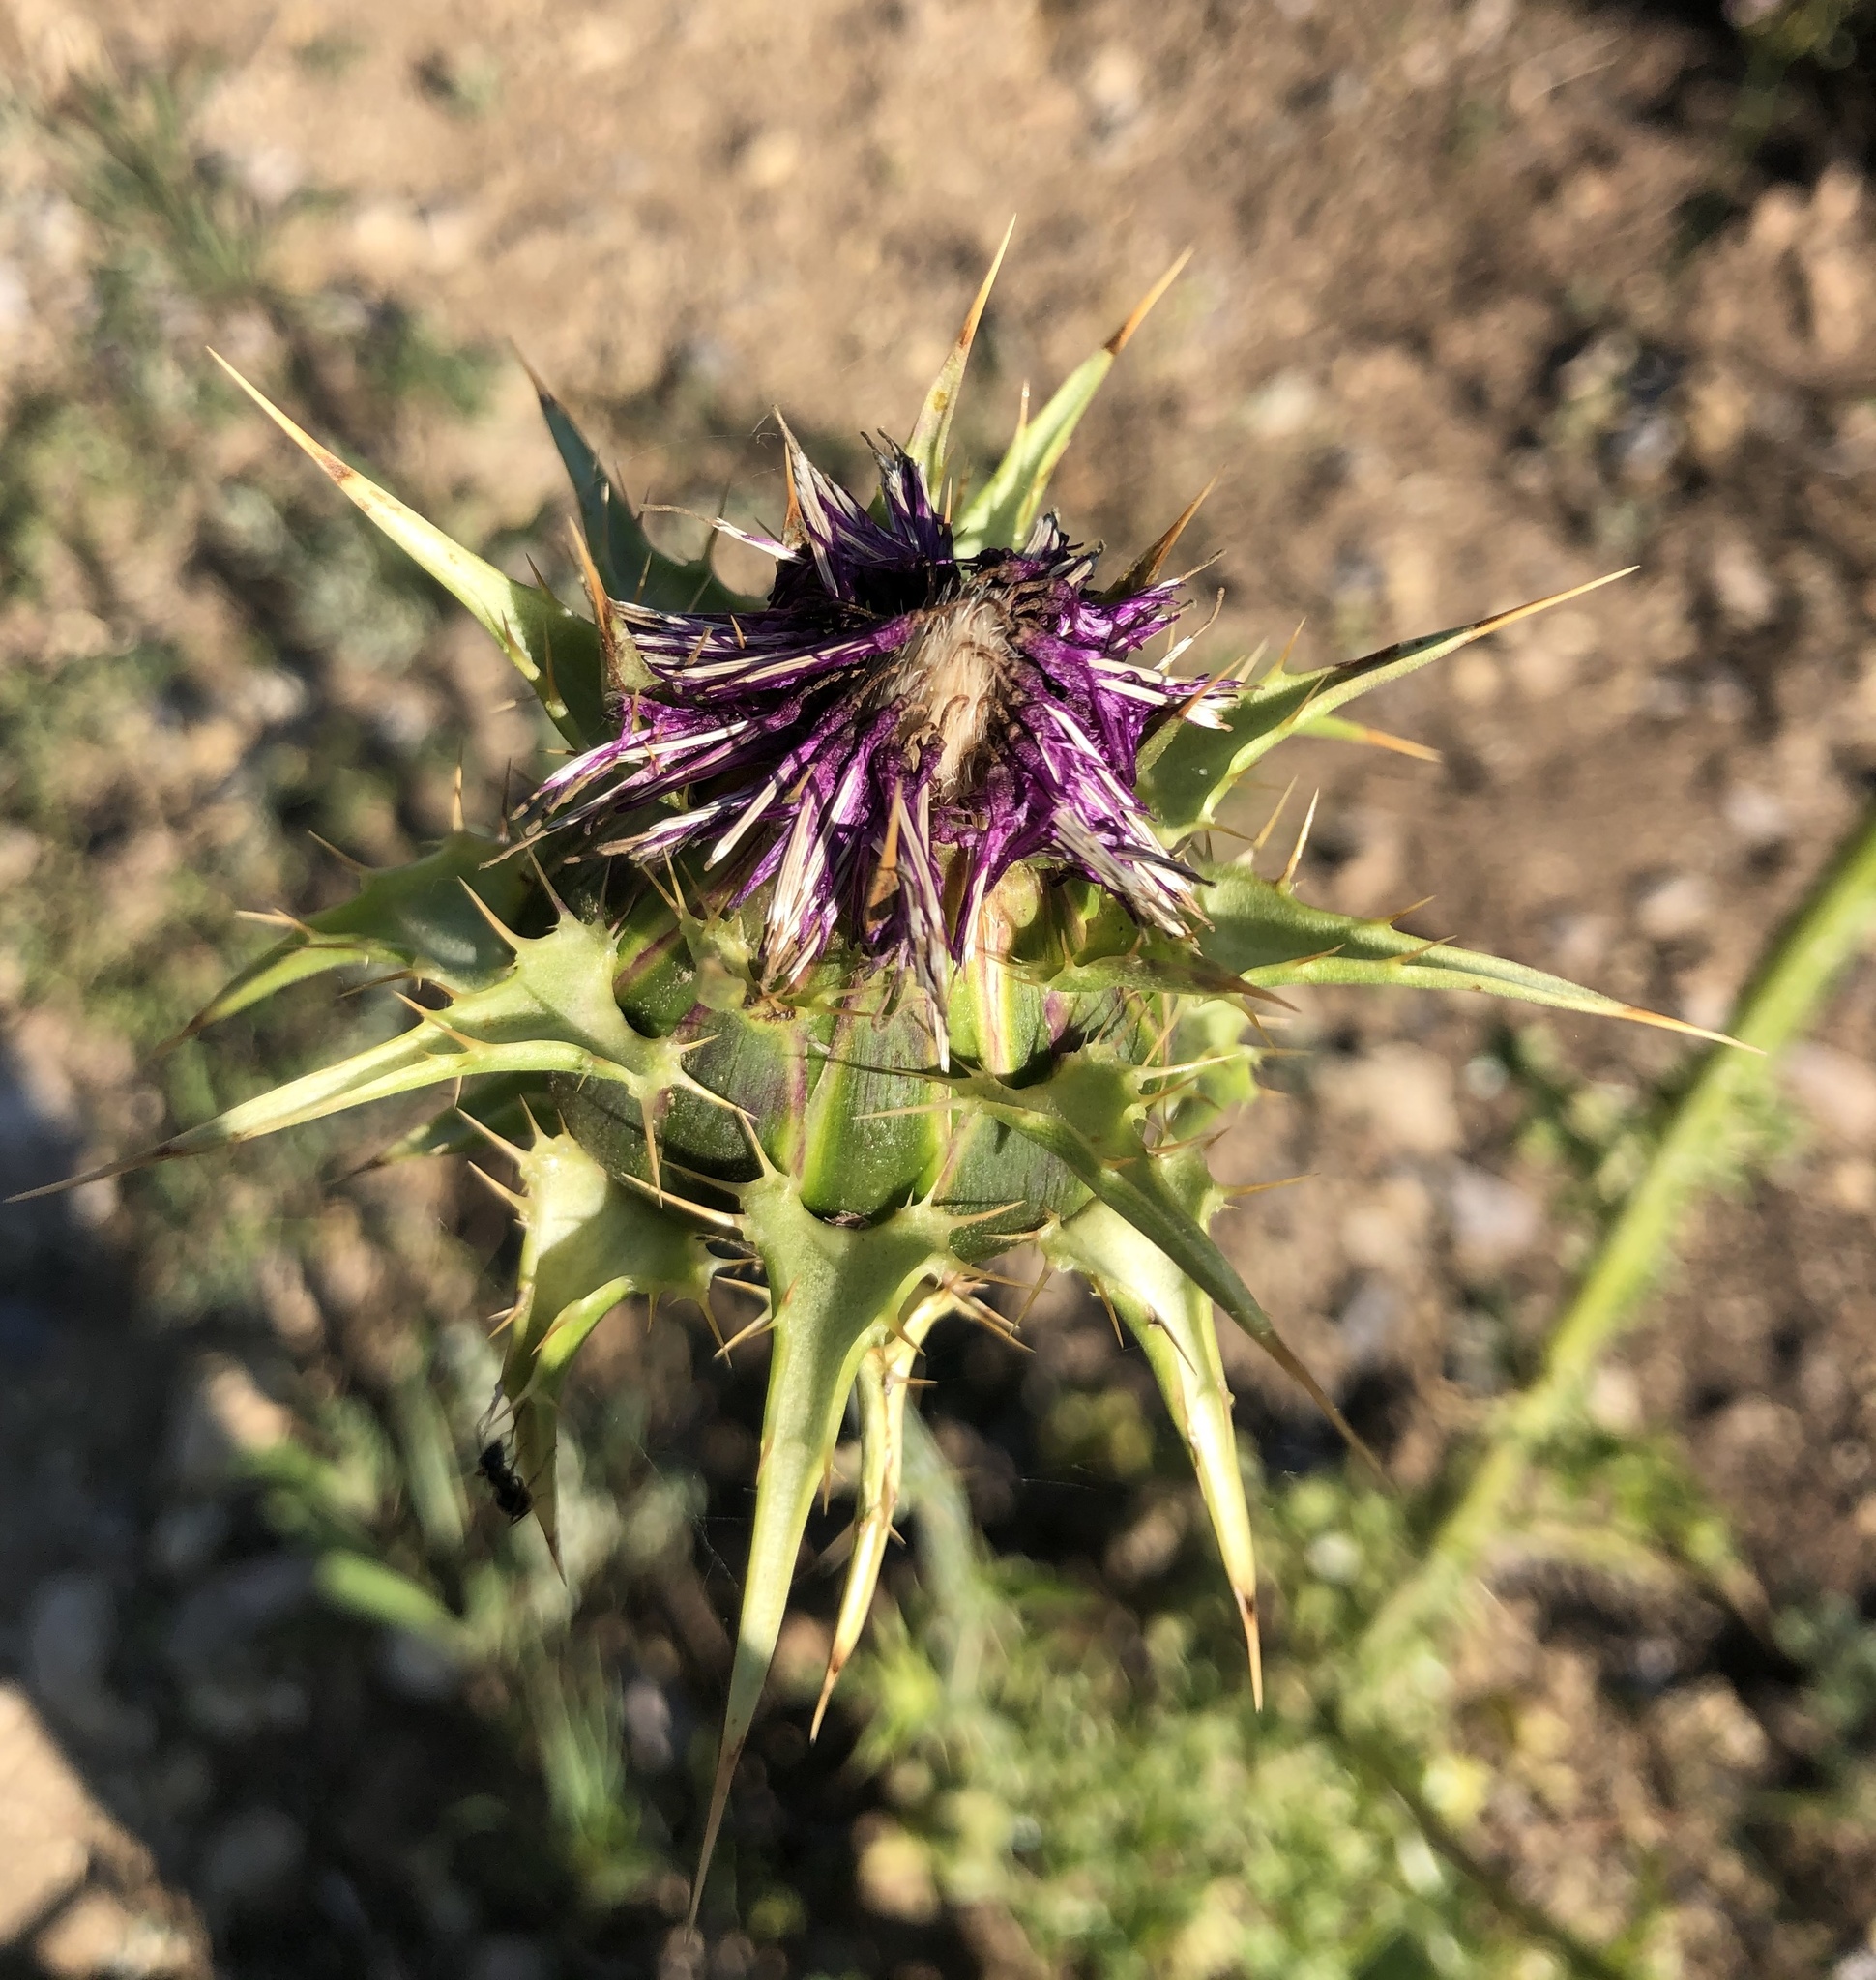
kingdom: Plantae
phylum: Tracheophyta
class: Magnoliopsida
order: Asterales
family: Asteraceae
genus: Silybum
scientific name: Silybum marianum
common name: Milk thistle
